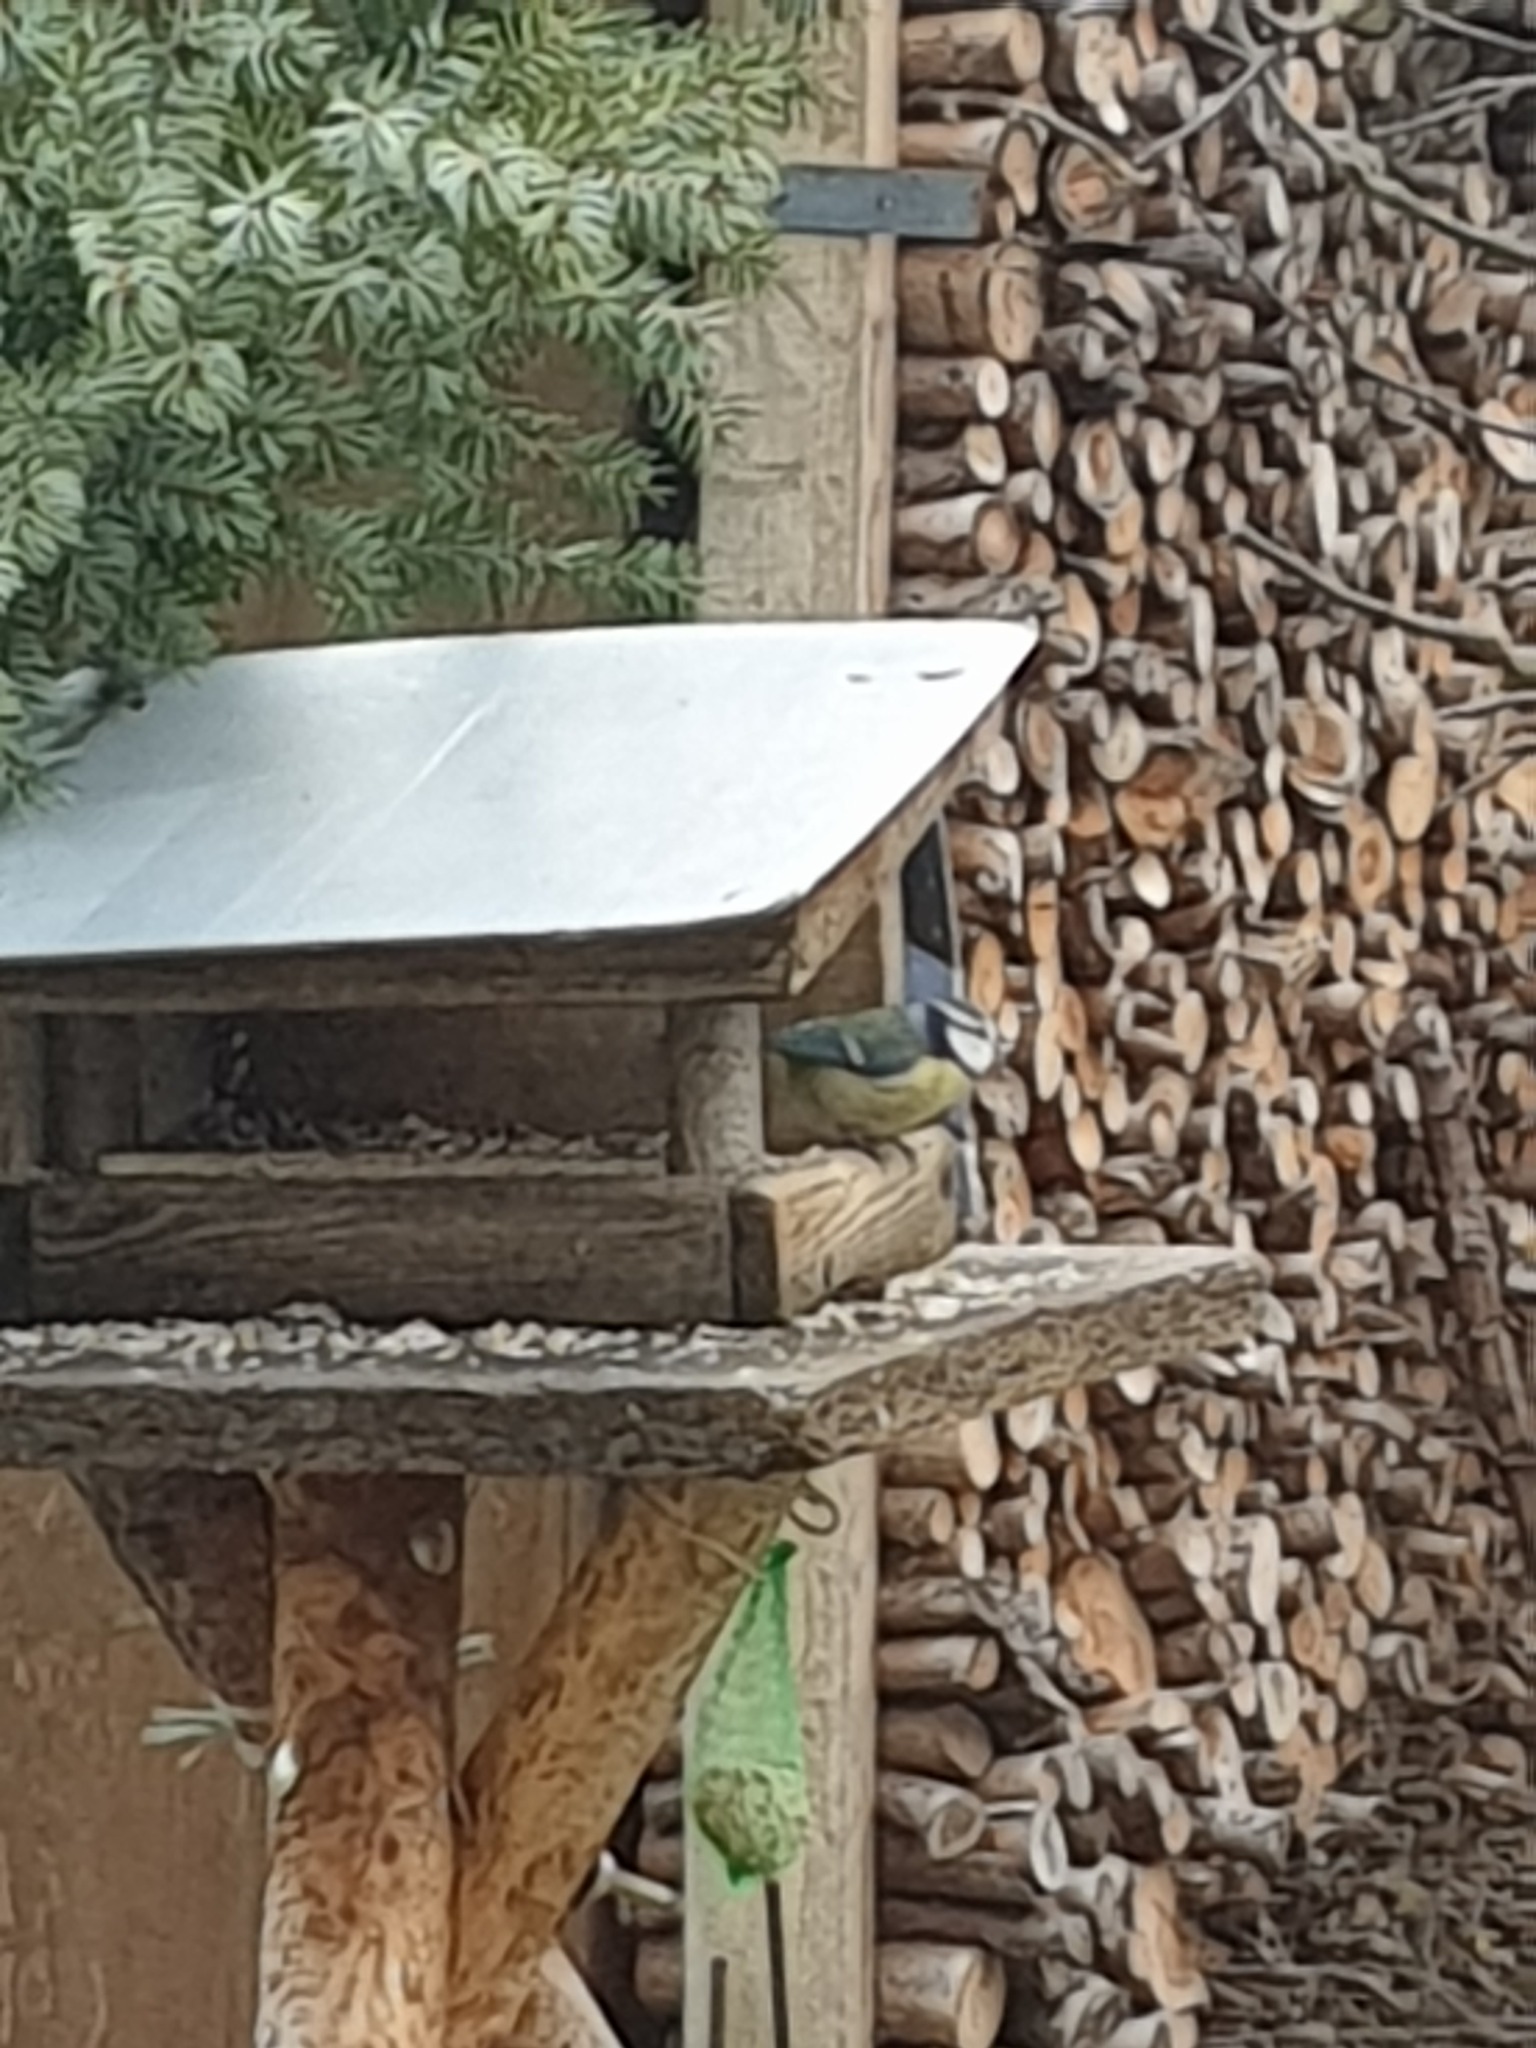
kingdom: Animalia
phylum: Chordata
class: Aves
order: Passeriformes
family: Paridae
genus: Cyanistes
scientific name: Cyanistes caeruleus
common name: Eurasian blue tit
